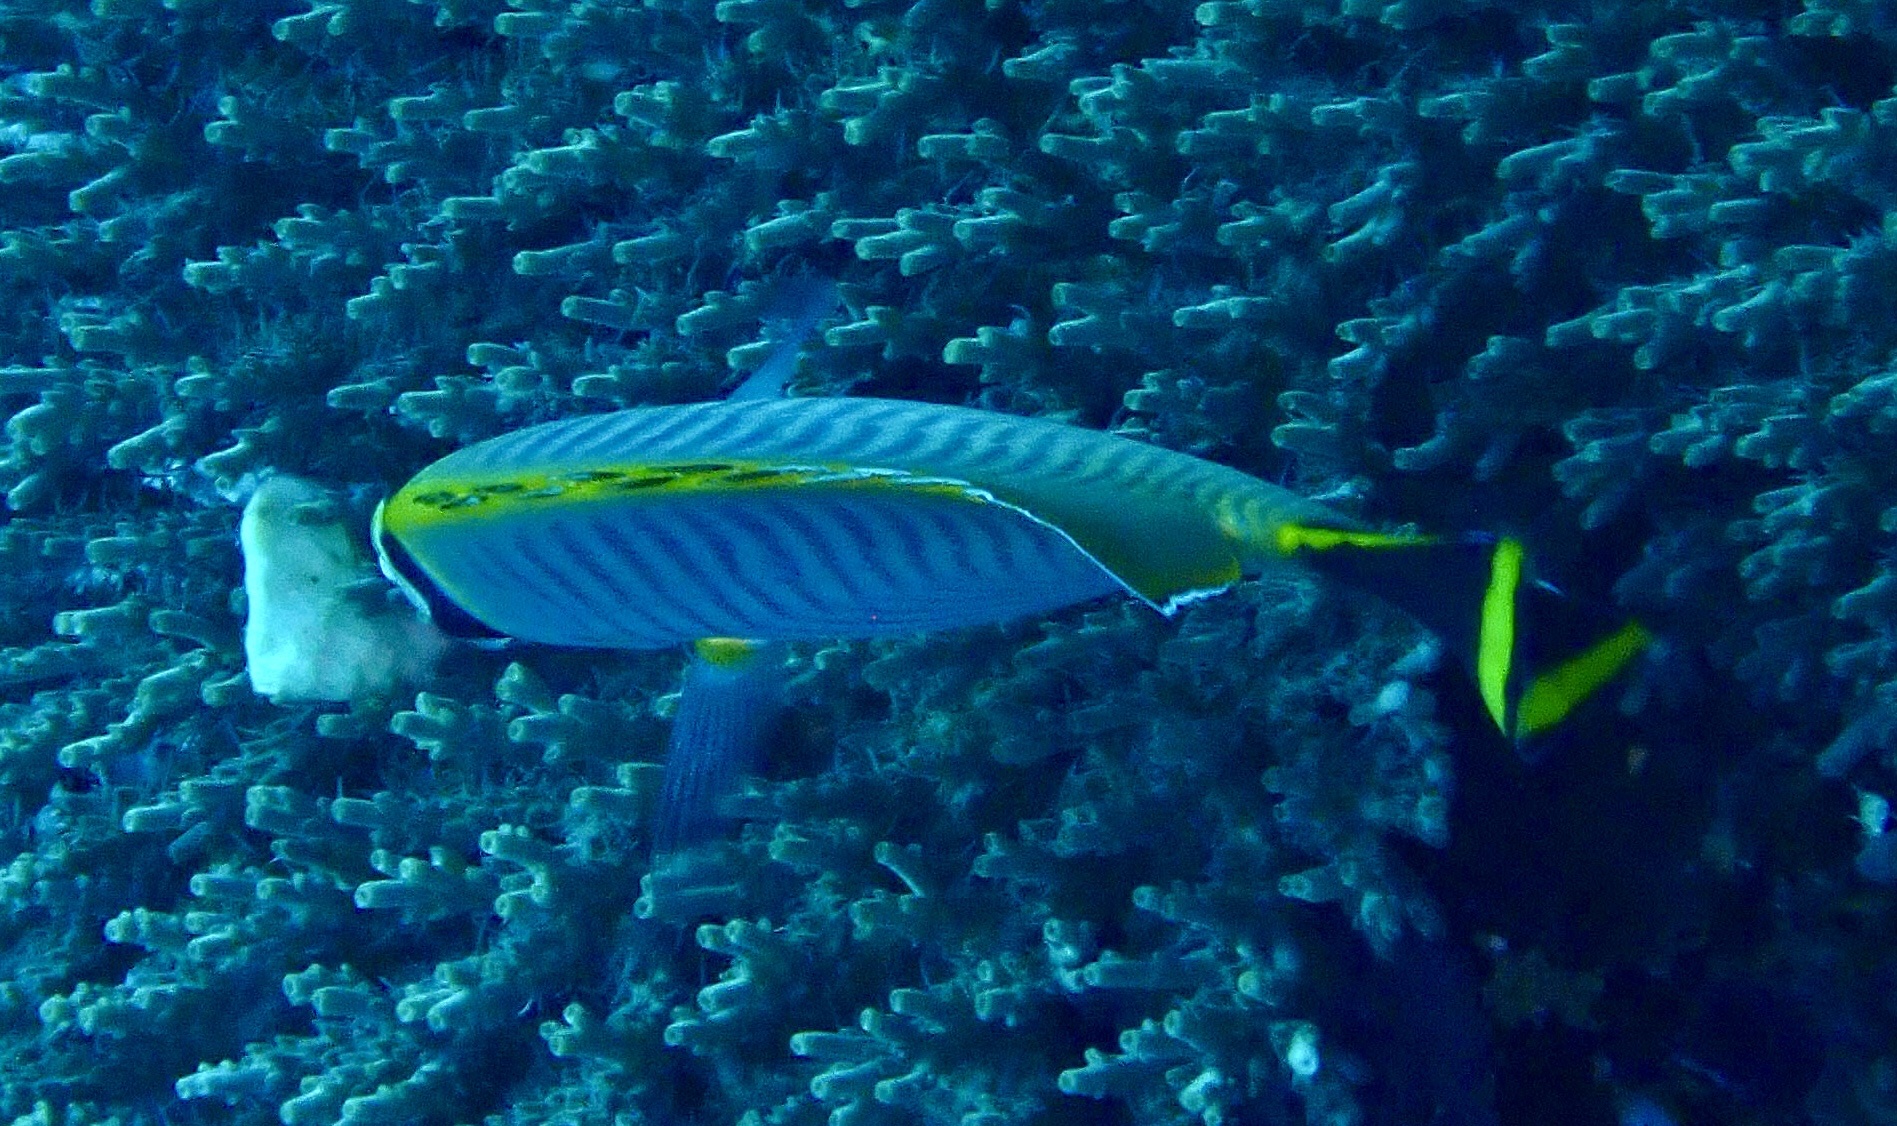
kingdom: Animalia
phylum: Chordata
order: Perciformes
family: Chaetodontidae
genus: Chaetodon
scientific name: Chaetodon trifascialis
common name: Chevroned butterflyfish
